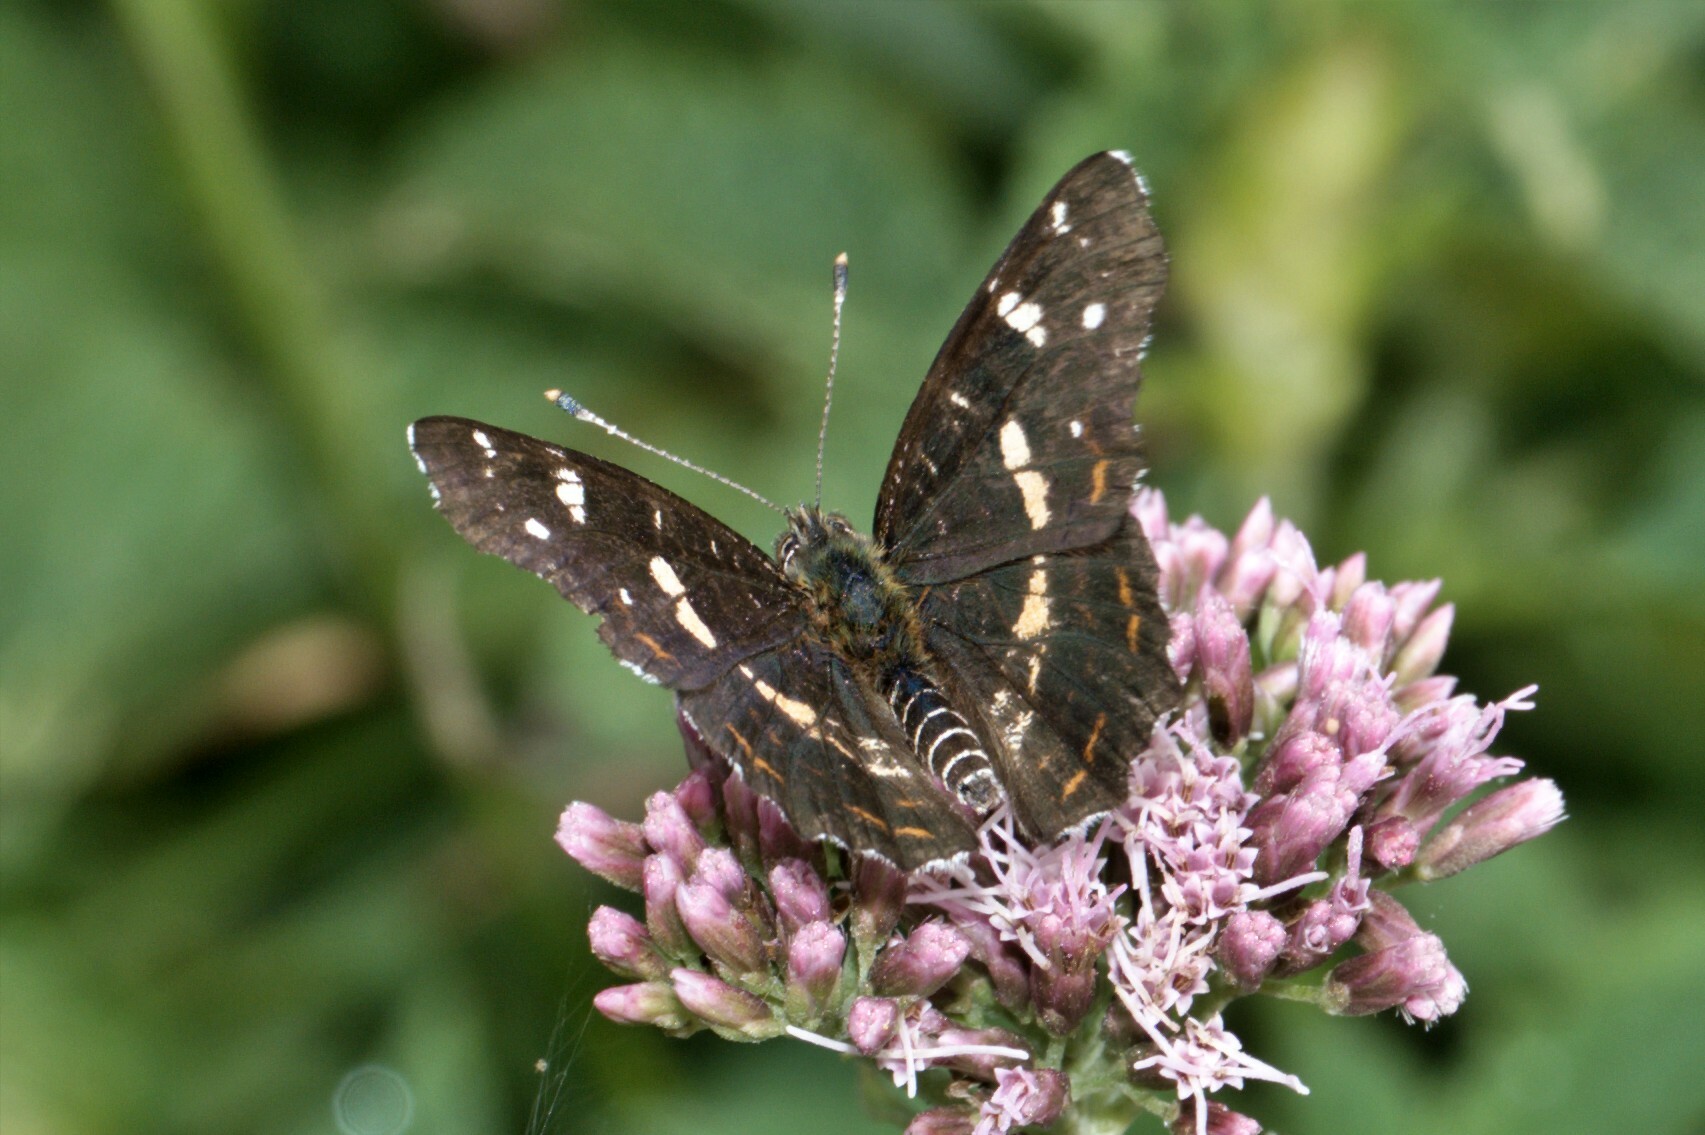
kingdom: Animalia
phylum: Arthropoda
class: Insecta
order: Lepidoptera
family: Nymphalidae
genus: Araschnia
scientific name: Araschnia levana
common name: Map butterfly
